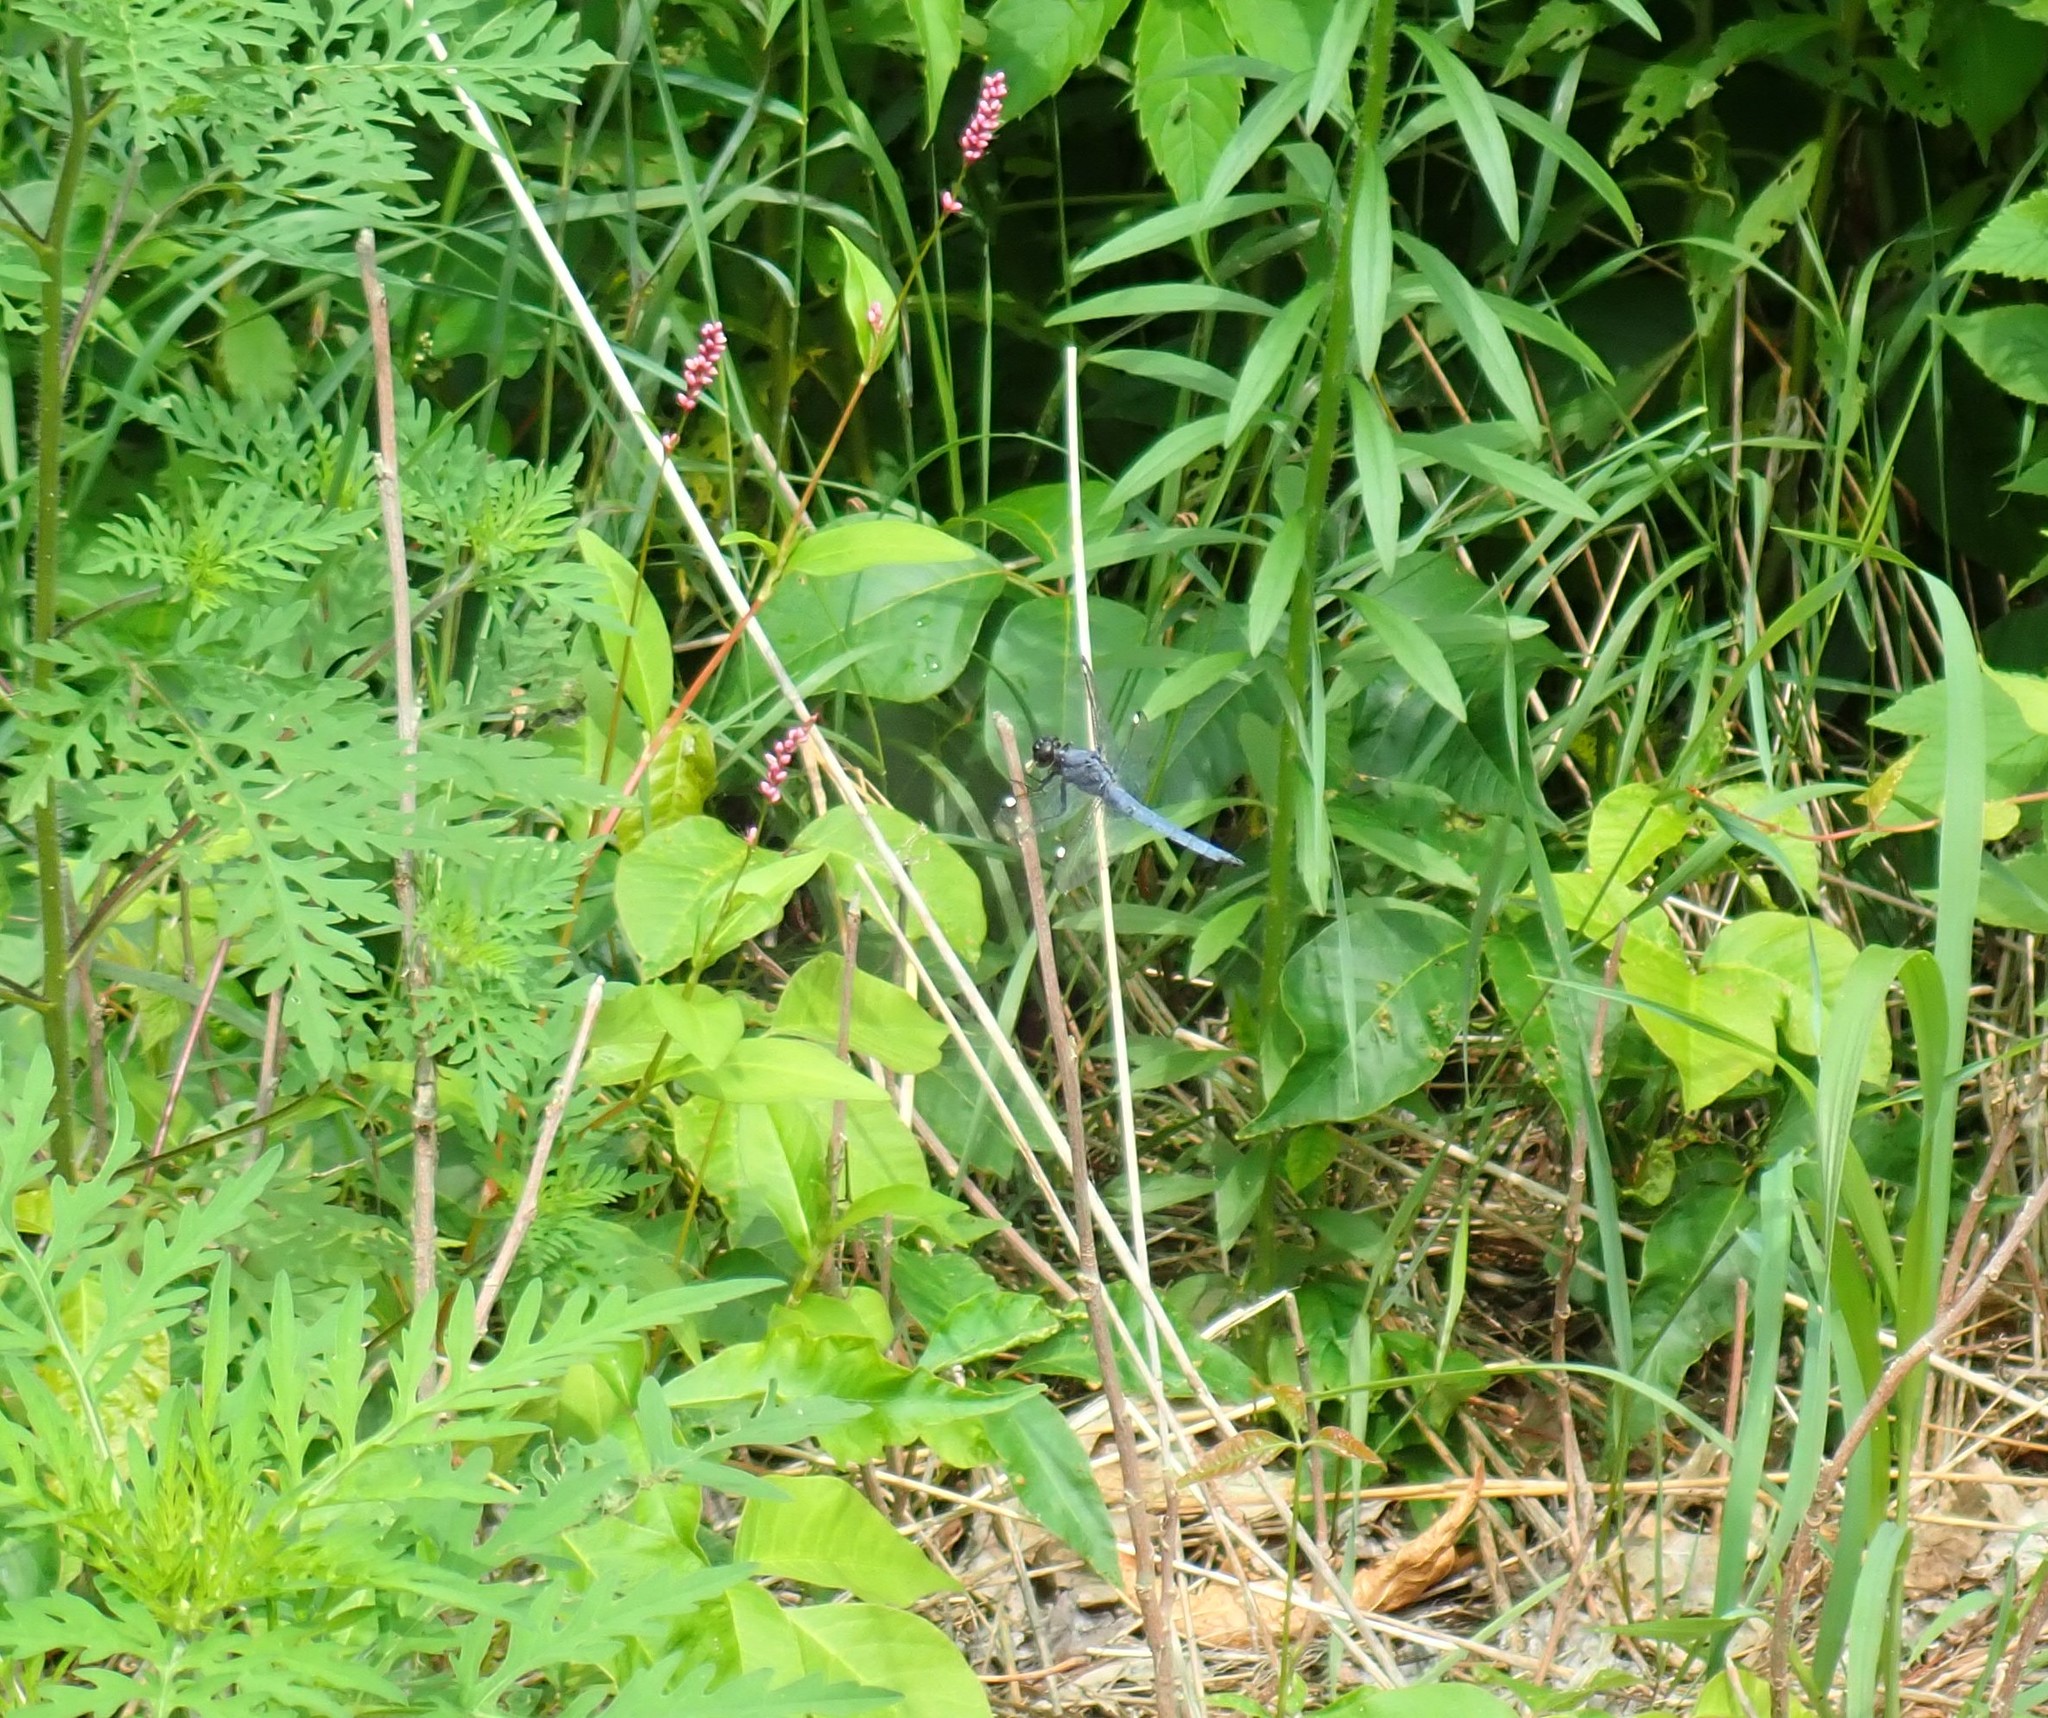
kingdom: Animalia
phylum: Arthropoda
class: Insecta
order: Odonata
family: Libellulidae
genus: Libellula
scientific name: Libellula cyanea
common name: Spangled skimmer
